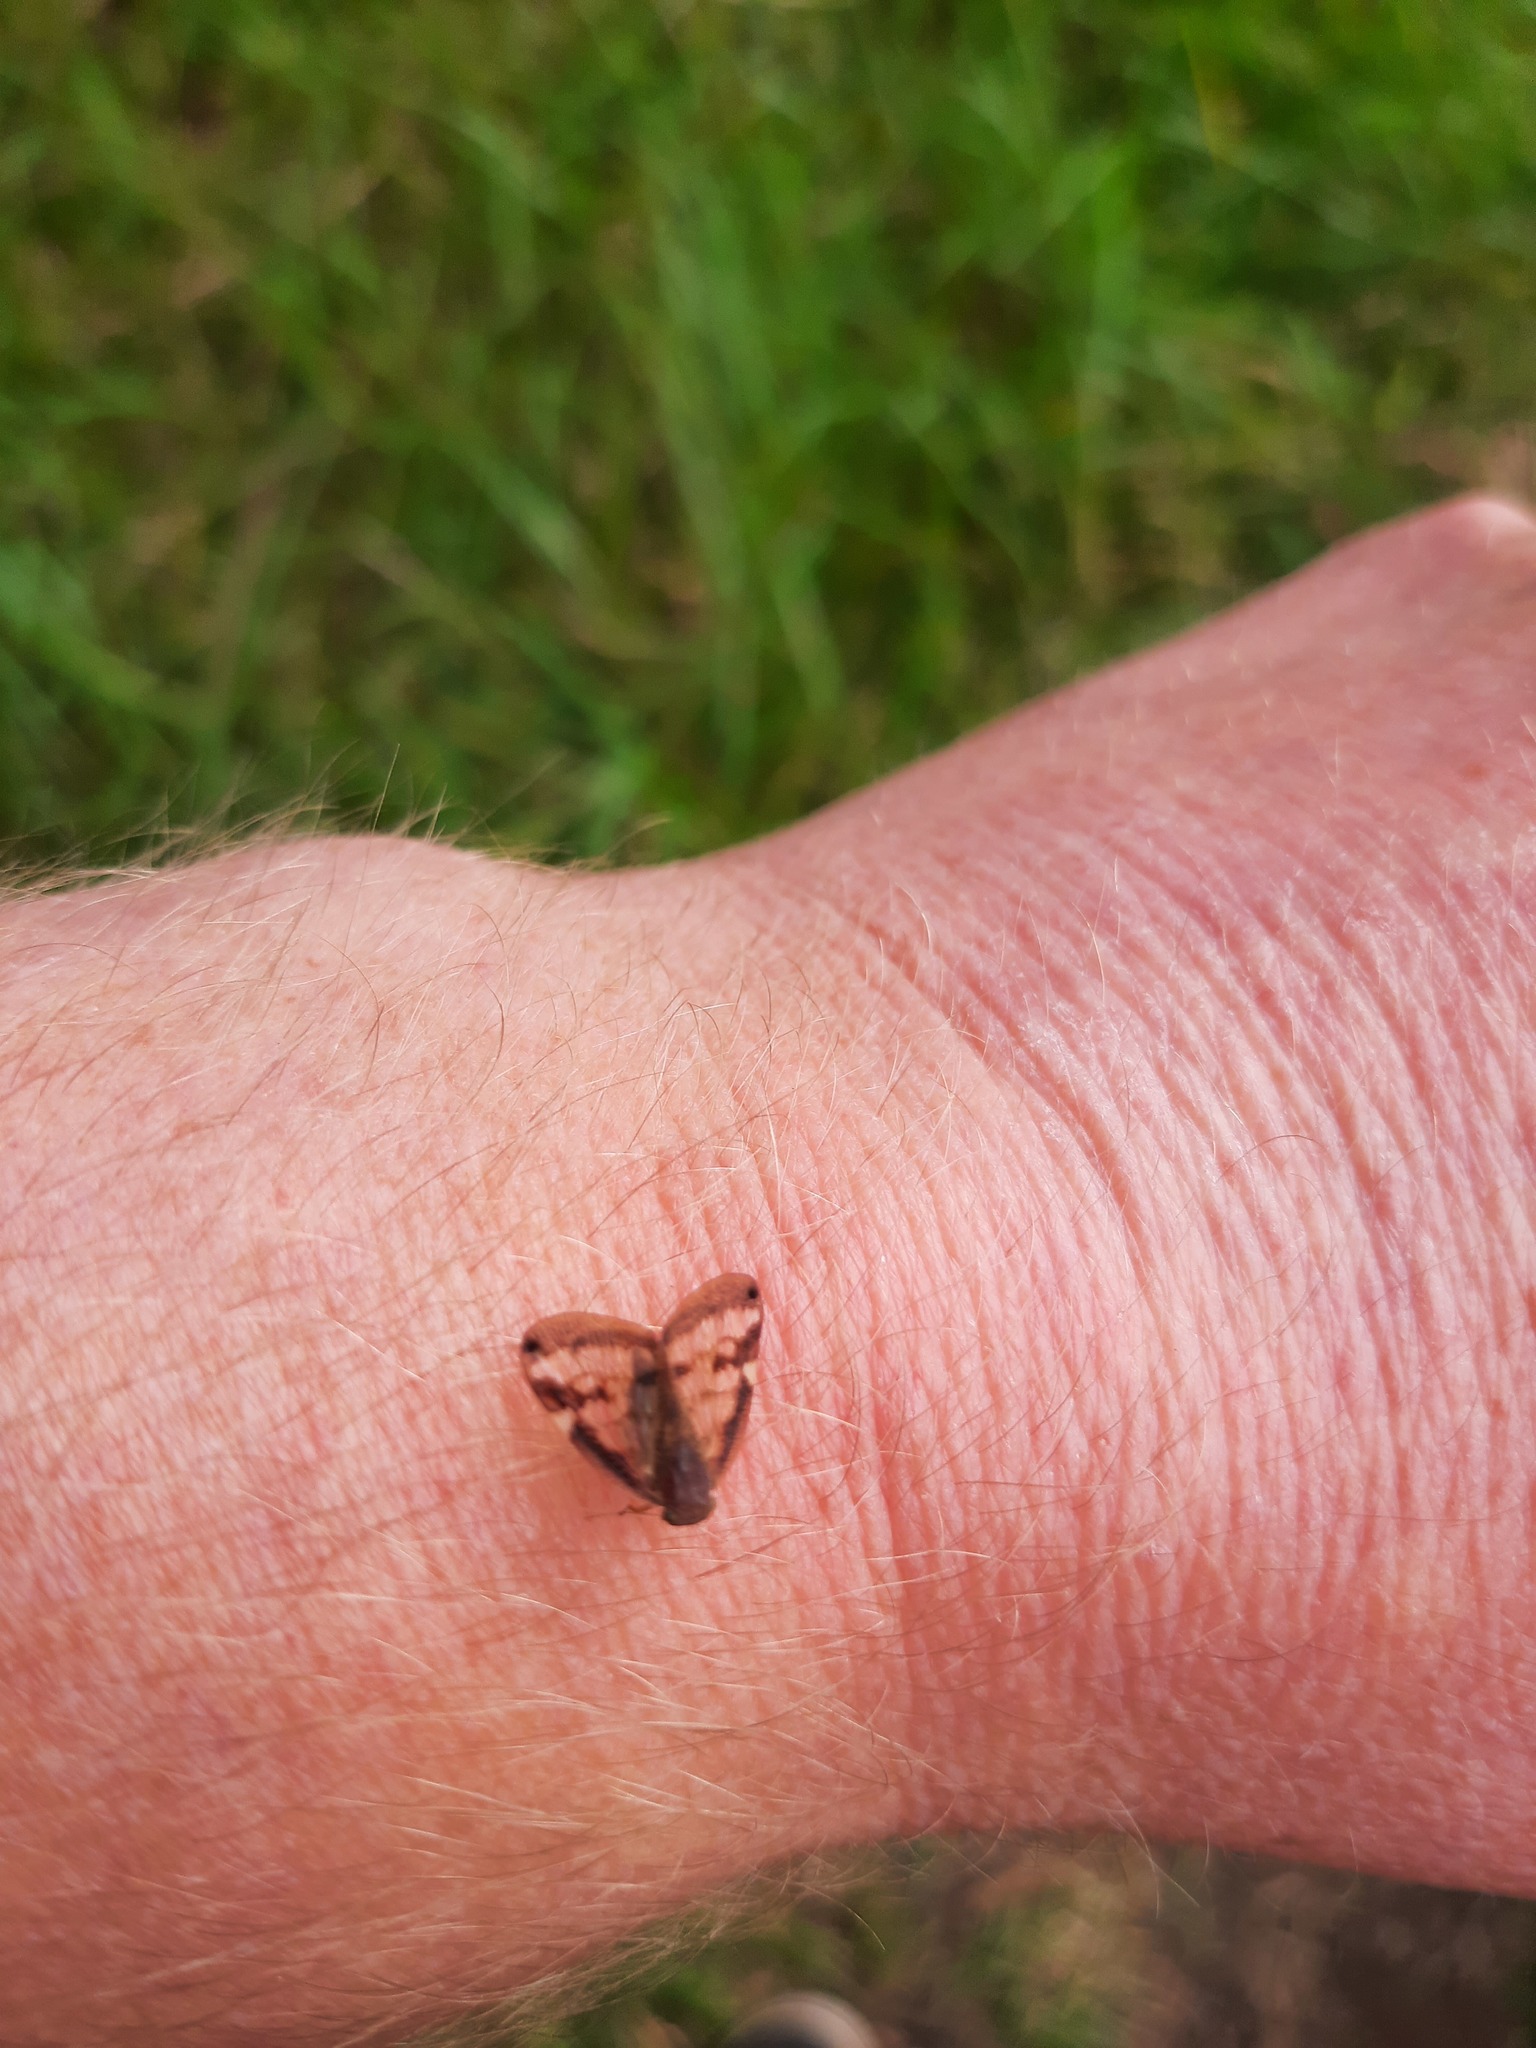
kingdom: Animalia
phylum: Arthropoda
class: Insecta
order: Hemiptera
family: Ricaniidae
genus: Scolypopa
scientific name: Scolypopa australis
